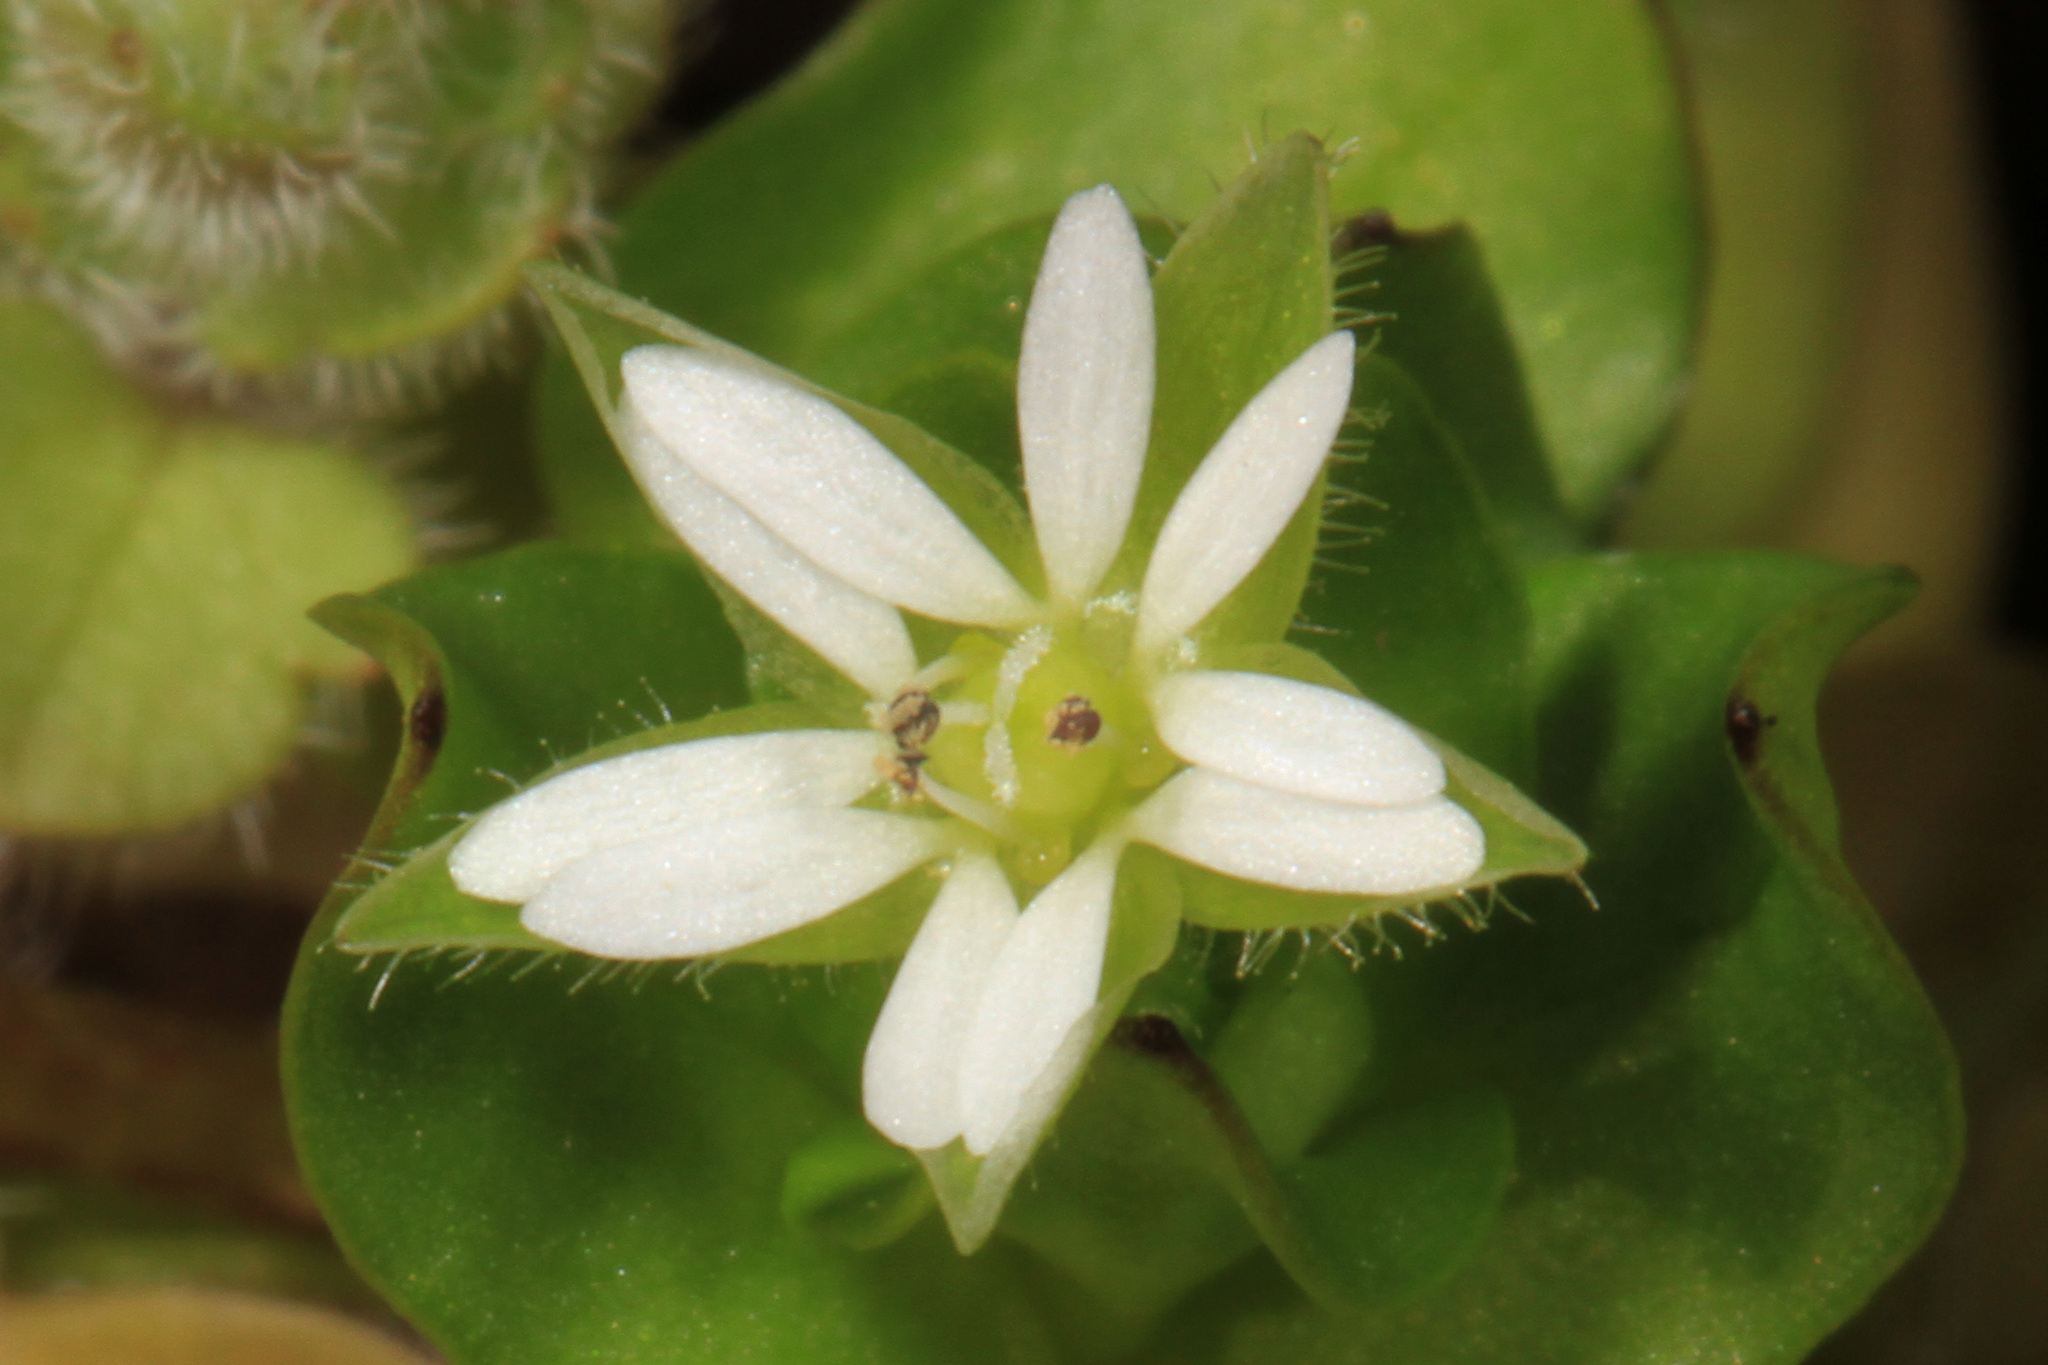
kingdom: Plantae
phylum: Tracheophyta
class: Magnoliopsida
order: Caryophyllales
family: Caryophyllaceae
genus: Stellaria
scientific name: Stellaria media
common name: Common chickweed
